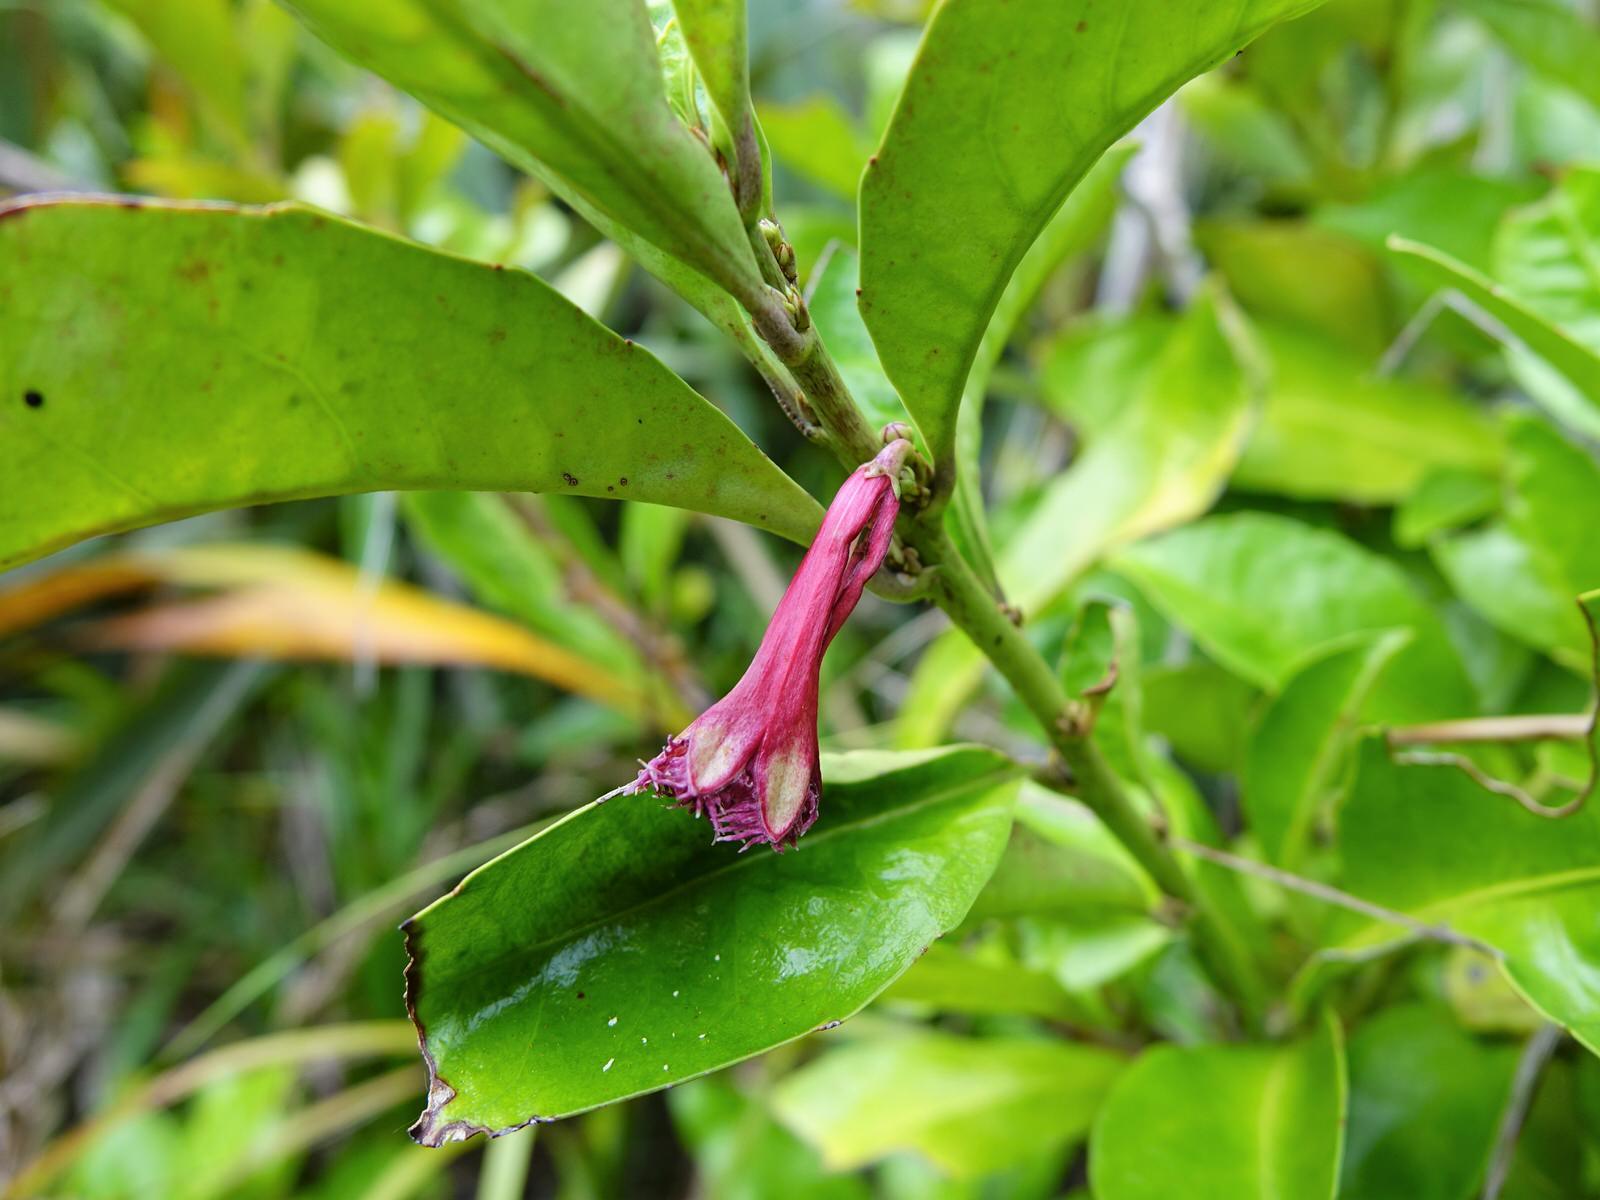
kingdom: Plantae
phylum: Tracheophyta
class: Magnoliopsida
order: Asterales
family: Alseuosmiaceae
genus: Alseuosmia
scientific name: Alseuosmia macrophylla
